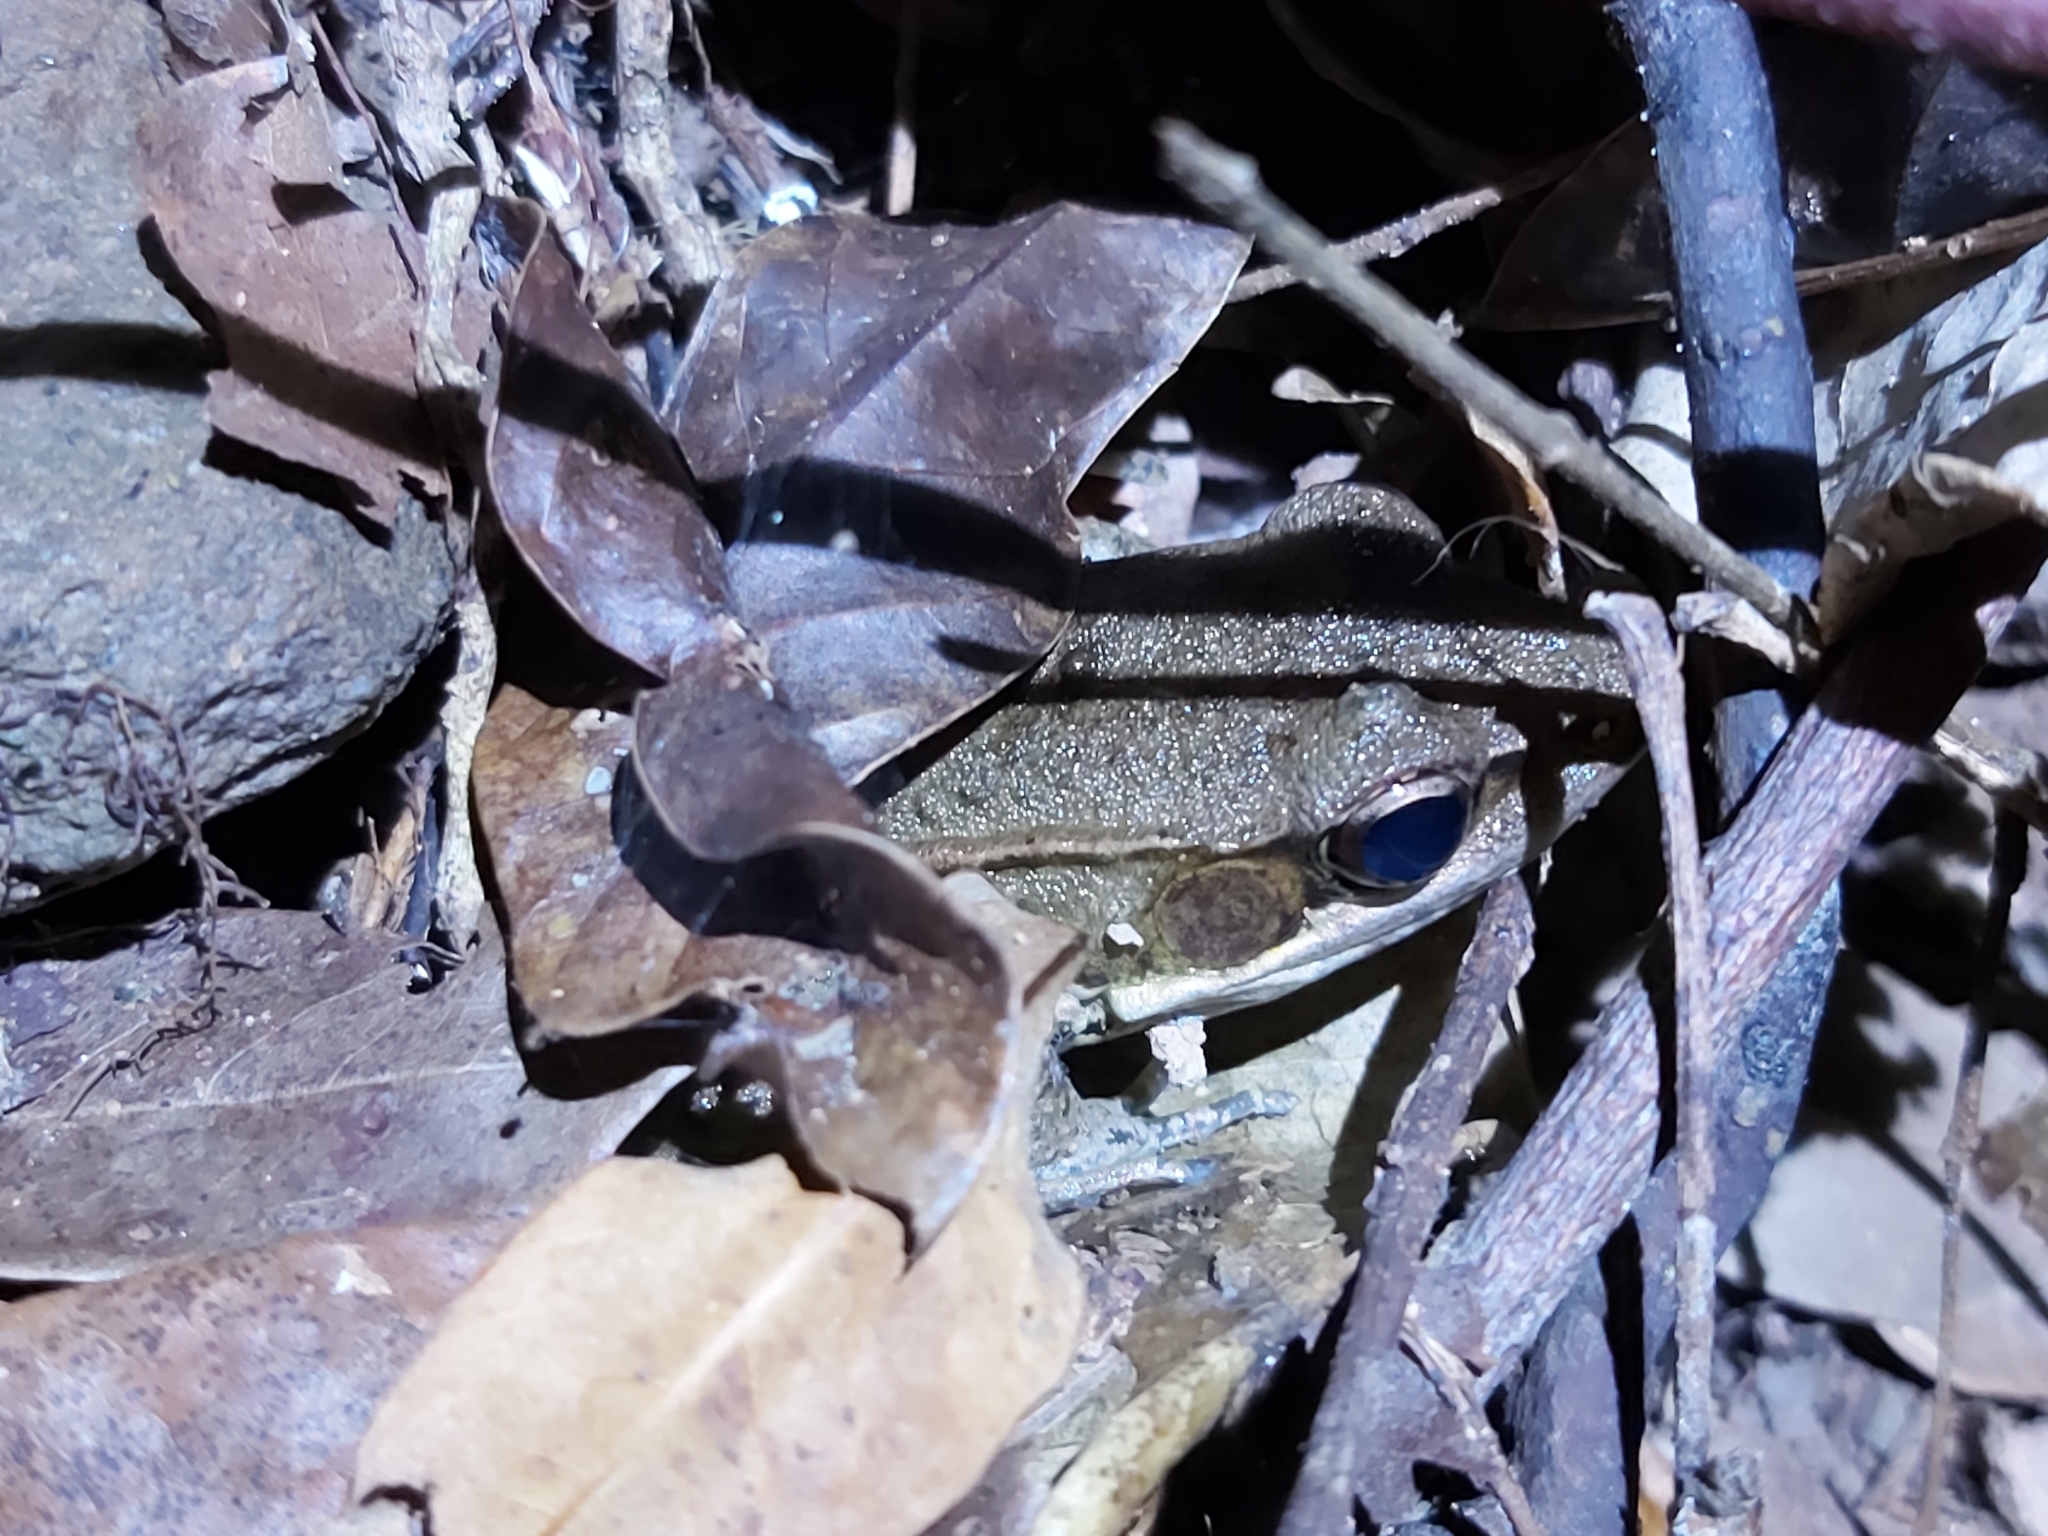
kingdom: Animalia
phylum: Chordata
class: Amphibia
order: Anura
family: Ranidae
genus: Papurana
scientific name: Papurana daemeli
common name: Arhem rana
